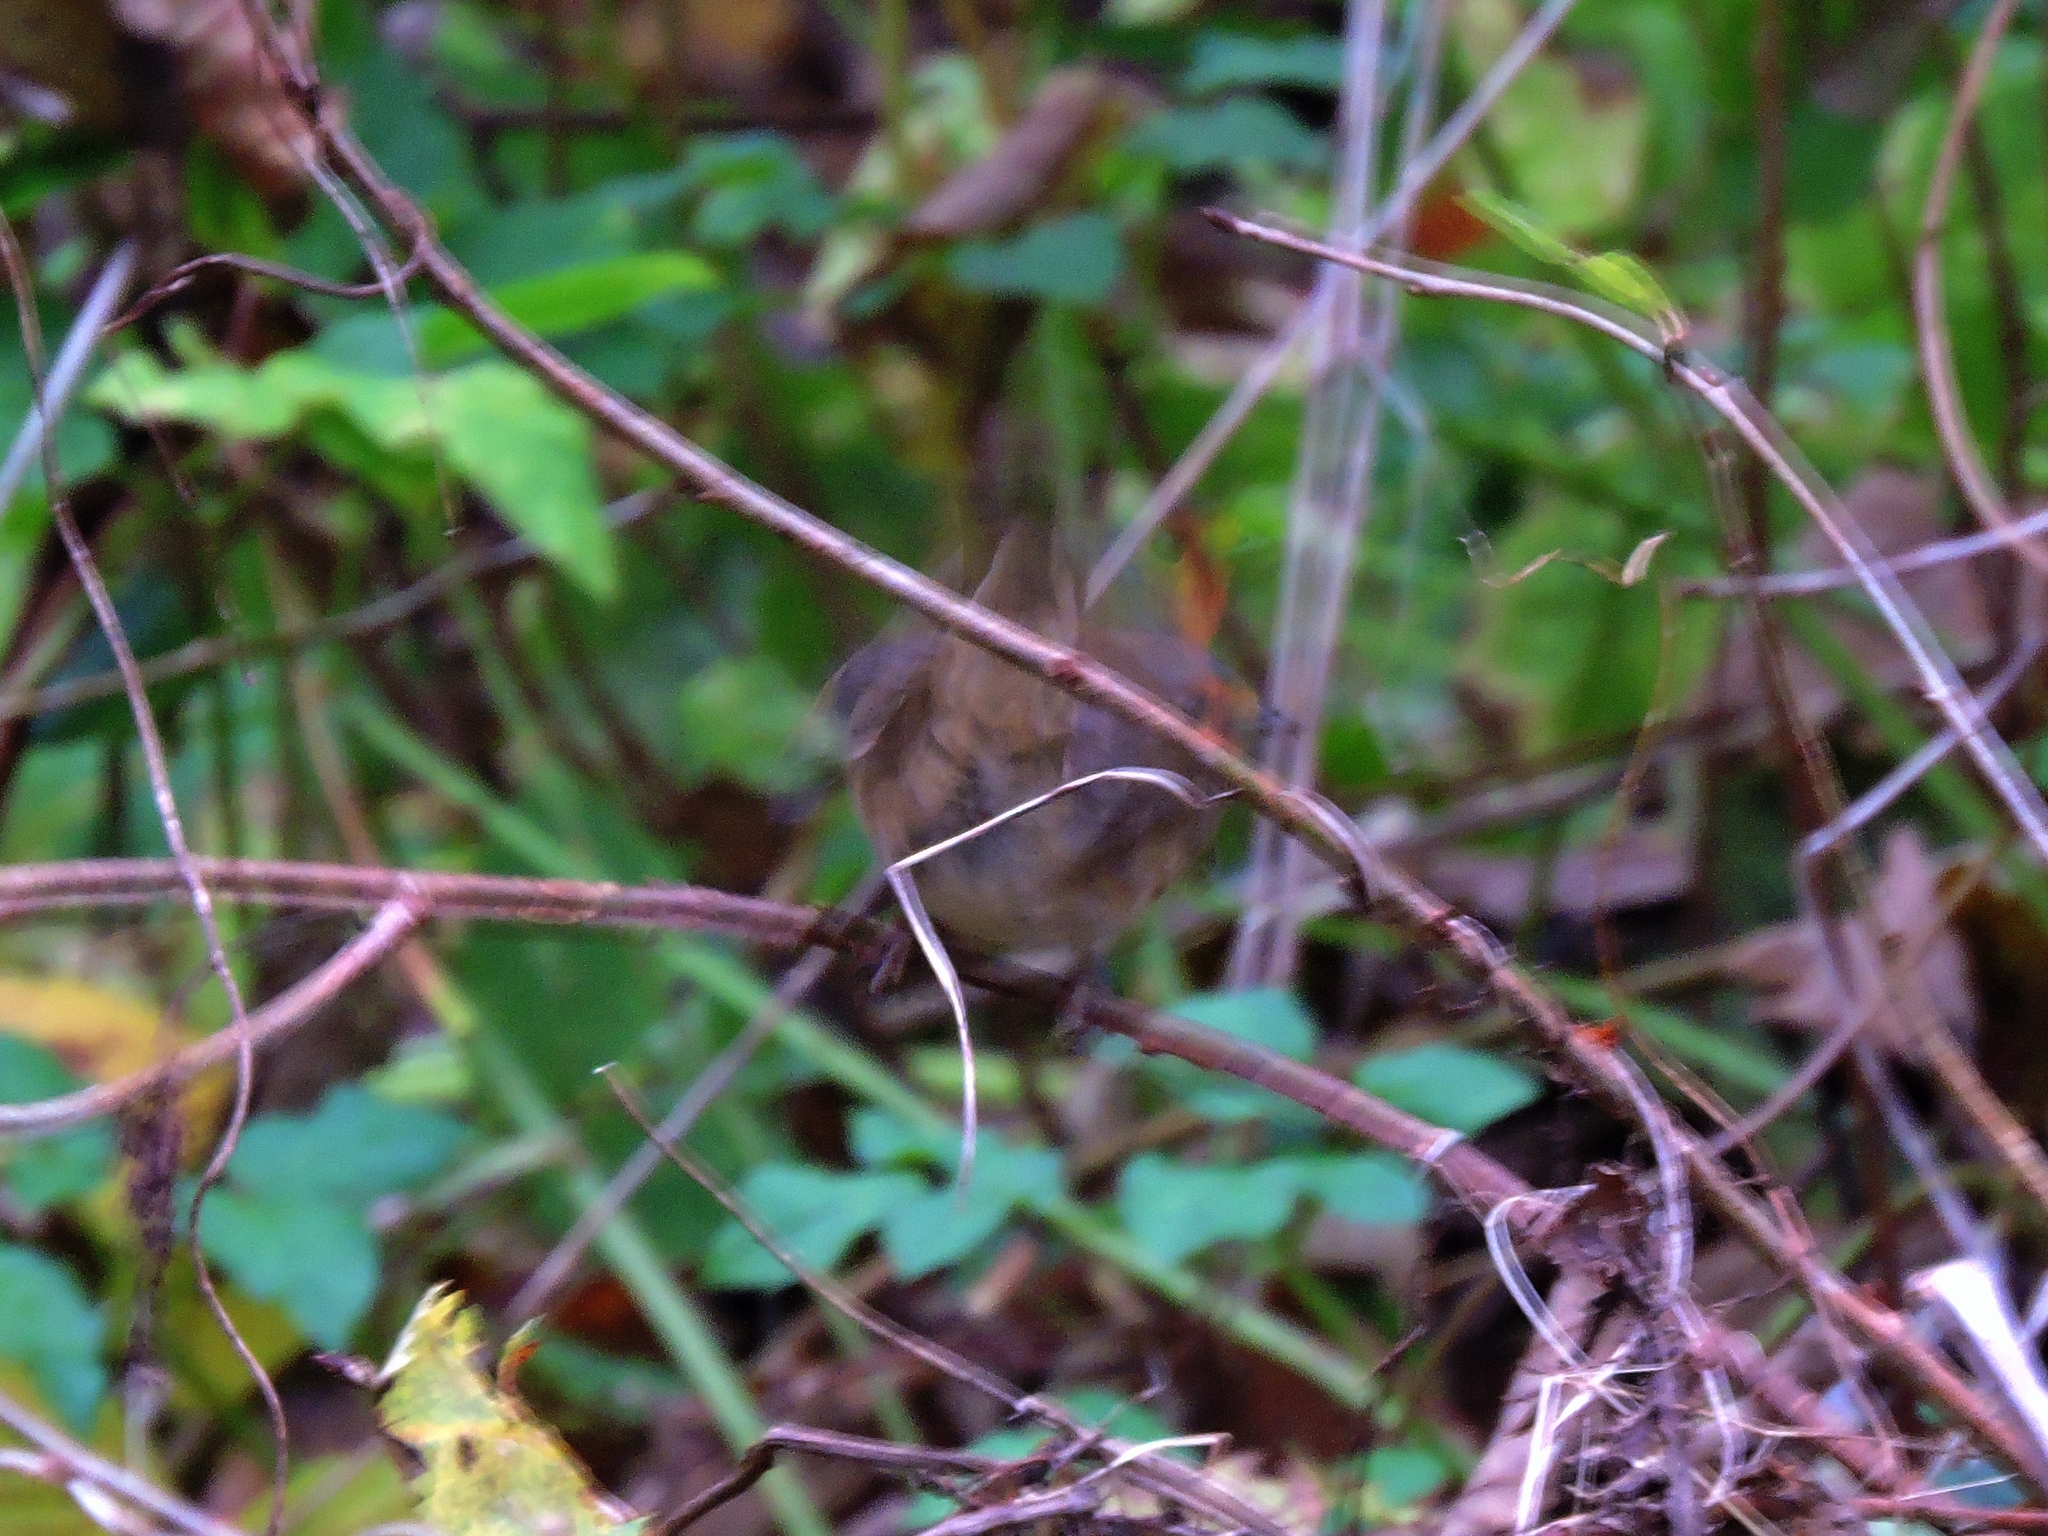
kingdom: Animalia
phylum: Chordata
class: Aves
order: Passeriformes
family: Muscicapidae
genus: Erithacus
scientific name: Erithacus rubecula
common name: European robin
